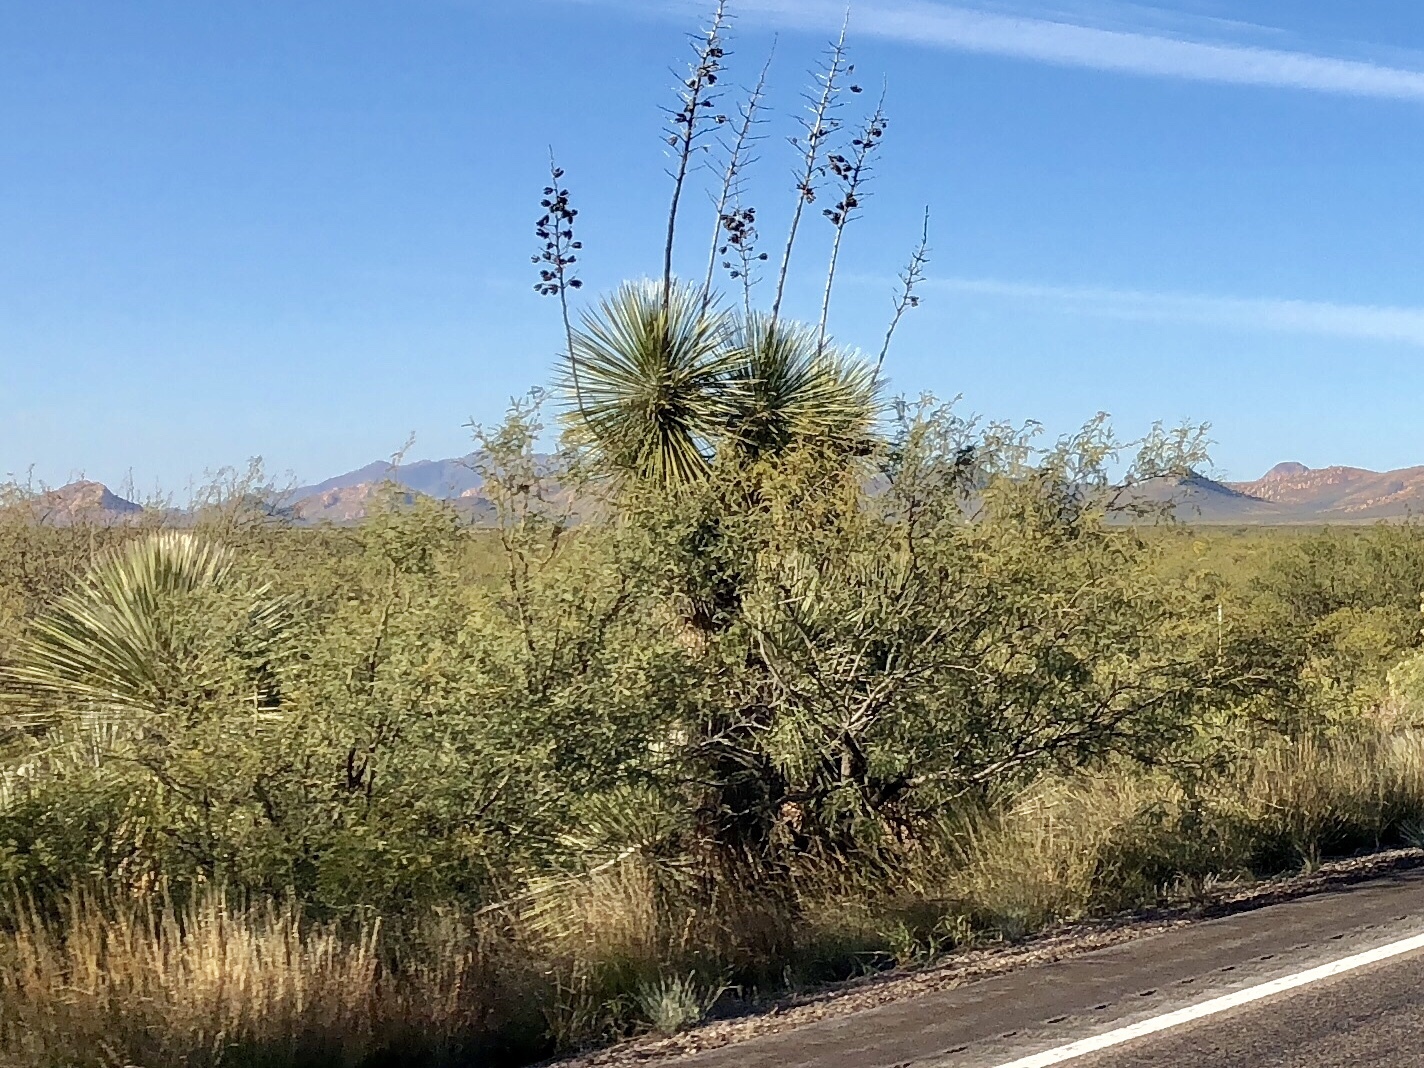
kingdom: Plantae
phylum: Tracheophyta
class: Liliopsida
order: Asparagales
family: Asparagaceae
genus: Yucca
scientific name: Yucca elata
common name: Palmella
